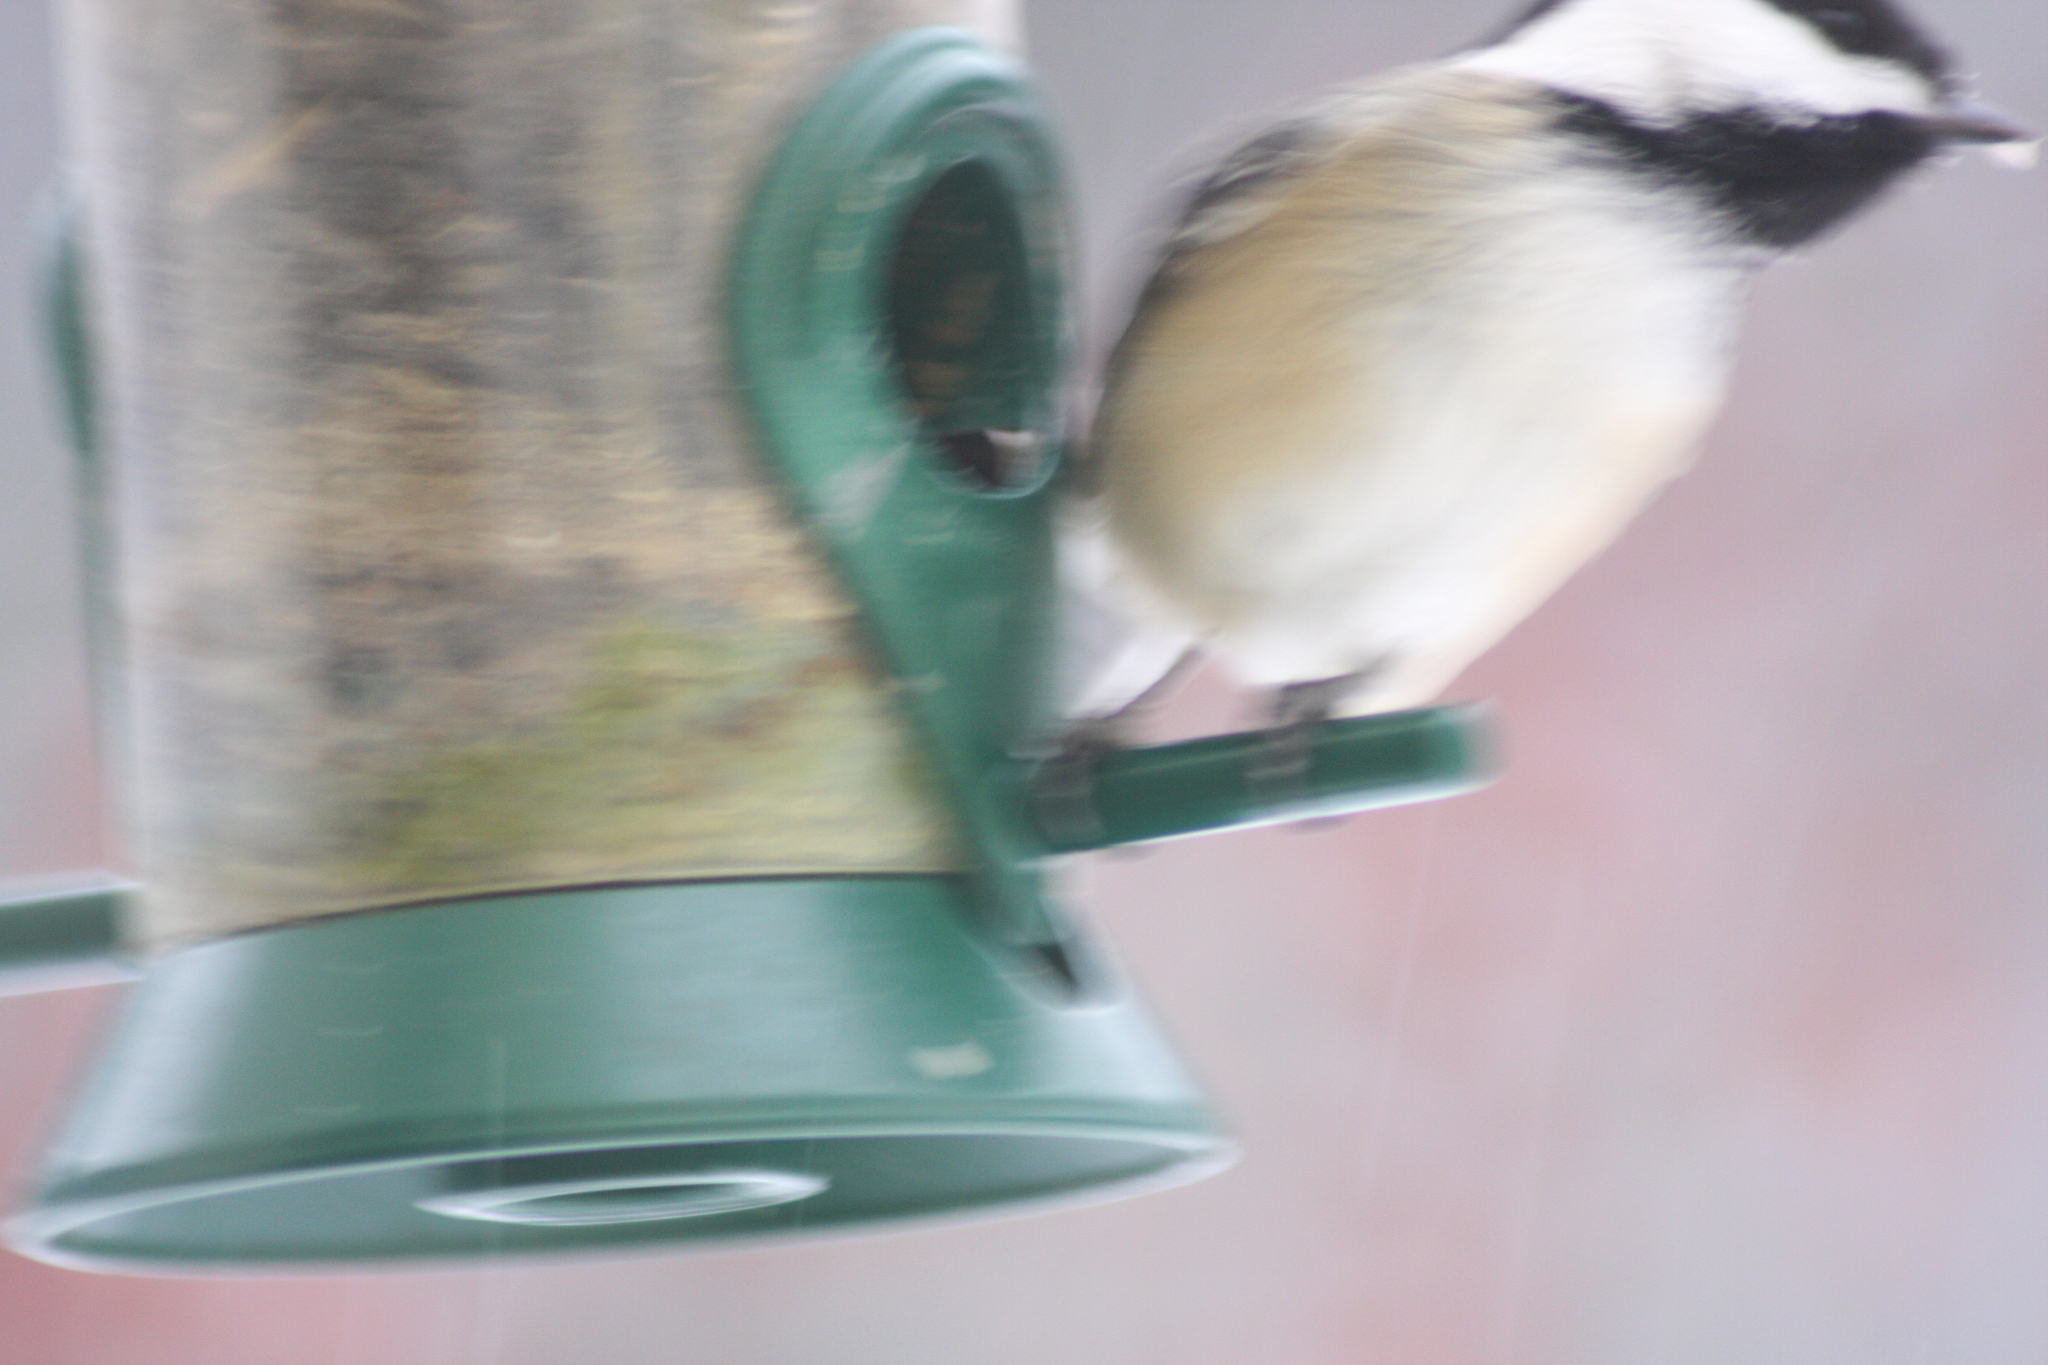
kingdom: Animalia
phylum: Chordata
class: Aves
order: Passeriformes
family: Paridae
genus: Poecile
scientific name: Poecile atricapillus
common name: Black-capped chickadee
